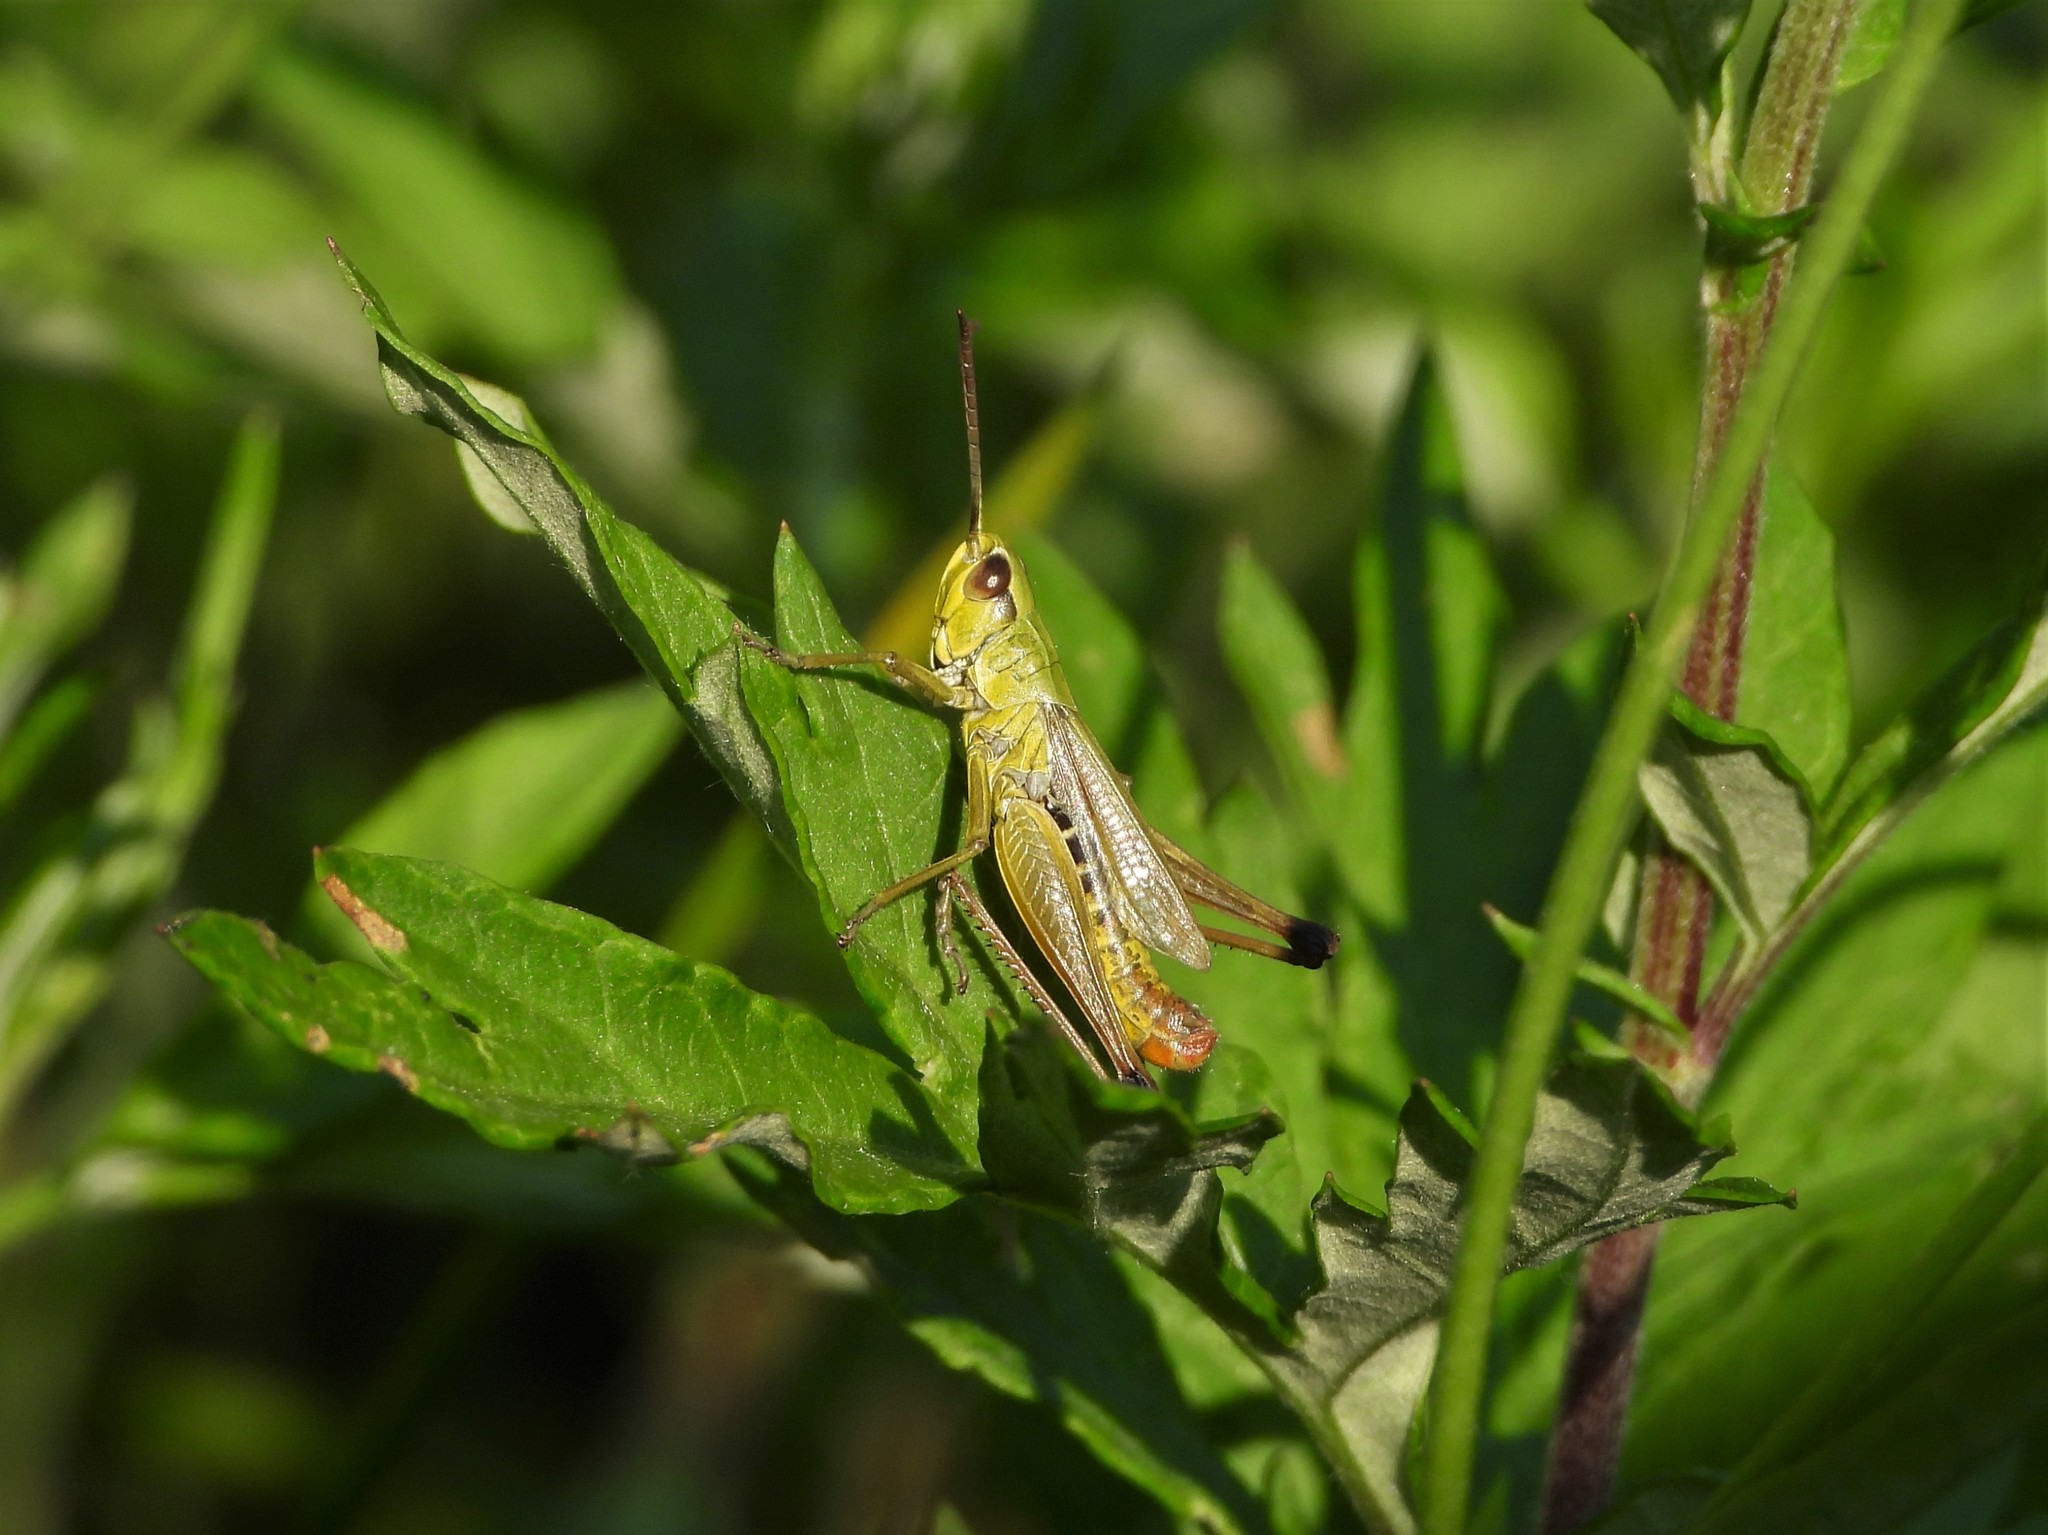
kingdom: Animalia
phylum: Arthropoda
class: Insecta
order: Orthoptera
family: Acrididae
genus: Pseudochorthippus
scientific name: Pseudochorthippus parallelus
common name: Meadow grasshopper
